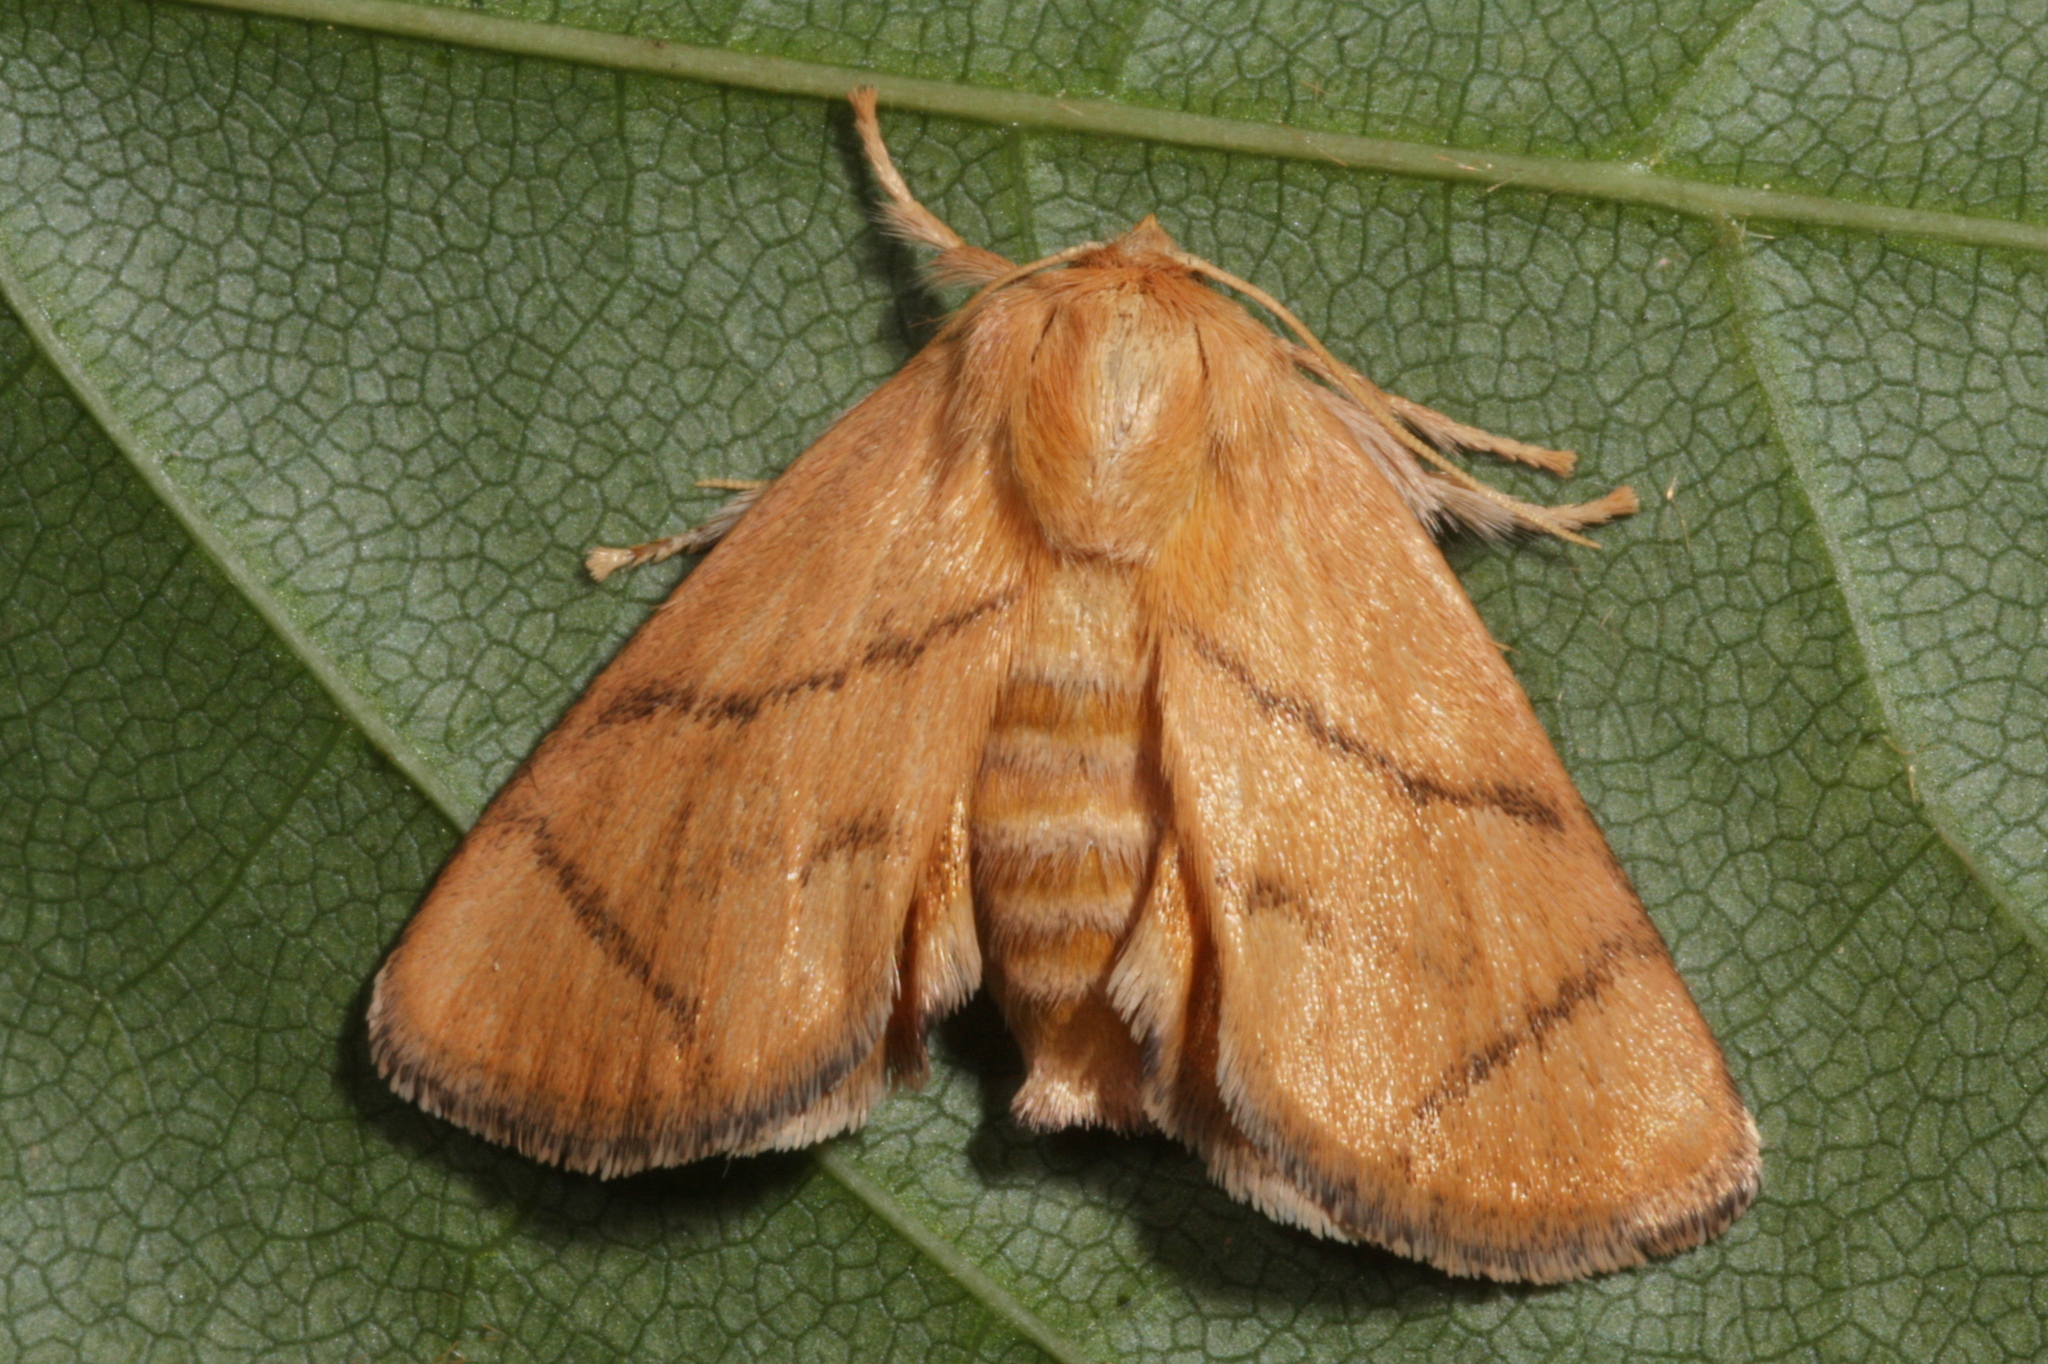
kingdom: Animalia
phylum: Arthropoda
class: Insecta
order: Lepidoptera
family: Limacodidae
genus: Apoda
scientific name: Apoda limacodes
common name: Festoon
